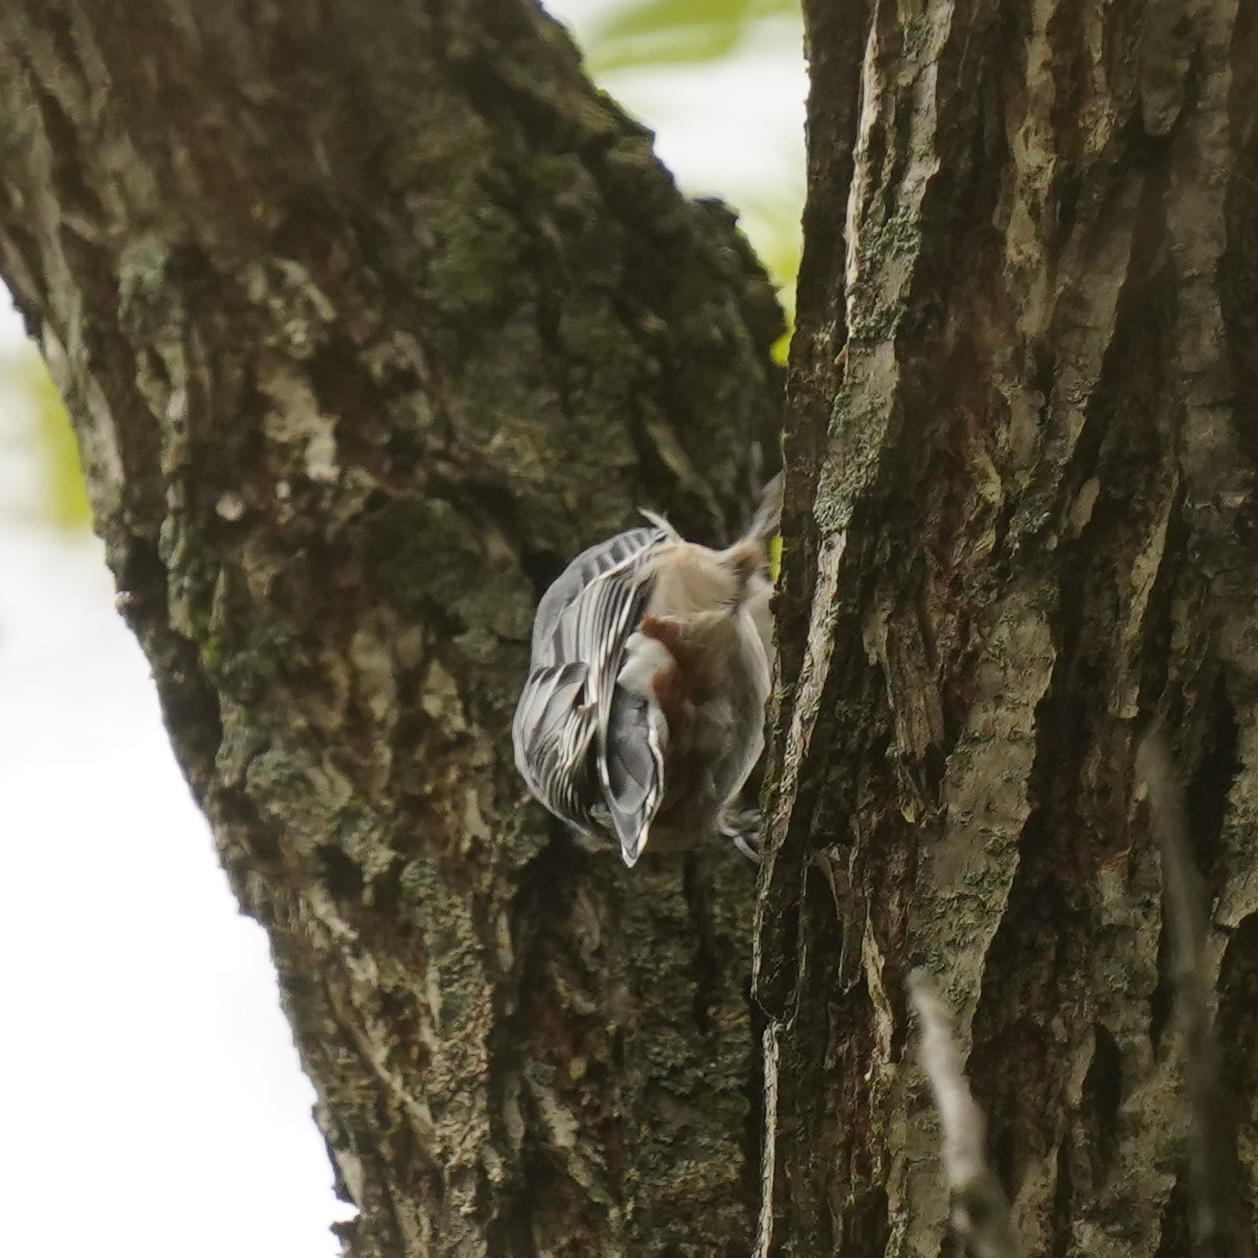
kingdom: Animalia
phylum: Chordata
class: Aves
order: Passeriformes
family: Sittidae
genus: Sitta
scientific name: Sitta carolinensis
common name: White-breasted nuthatch
